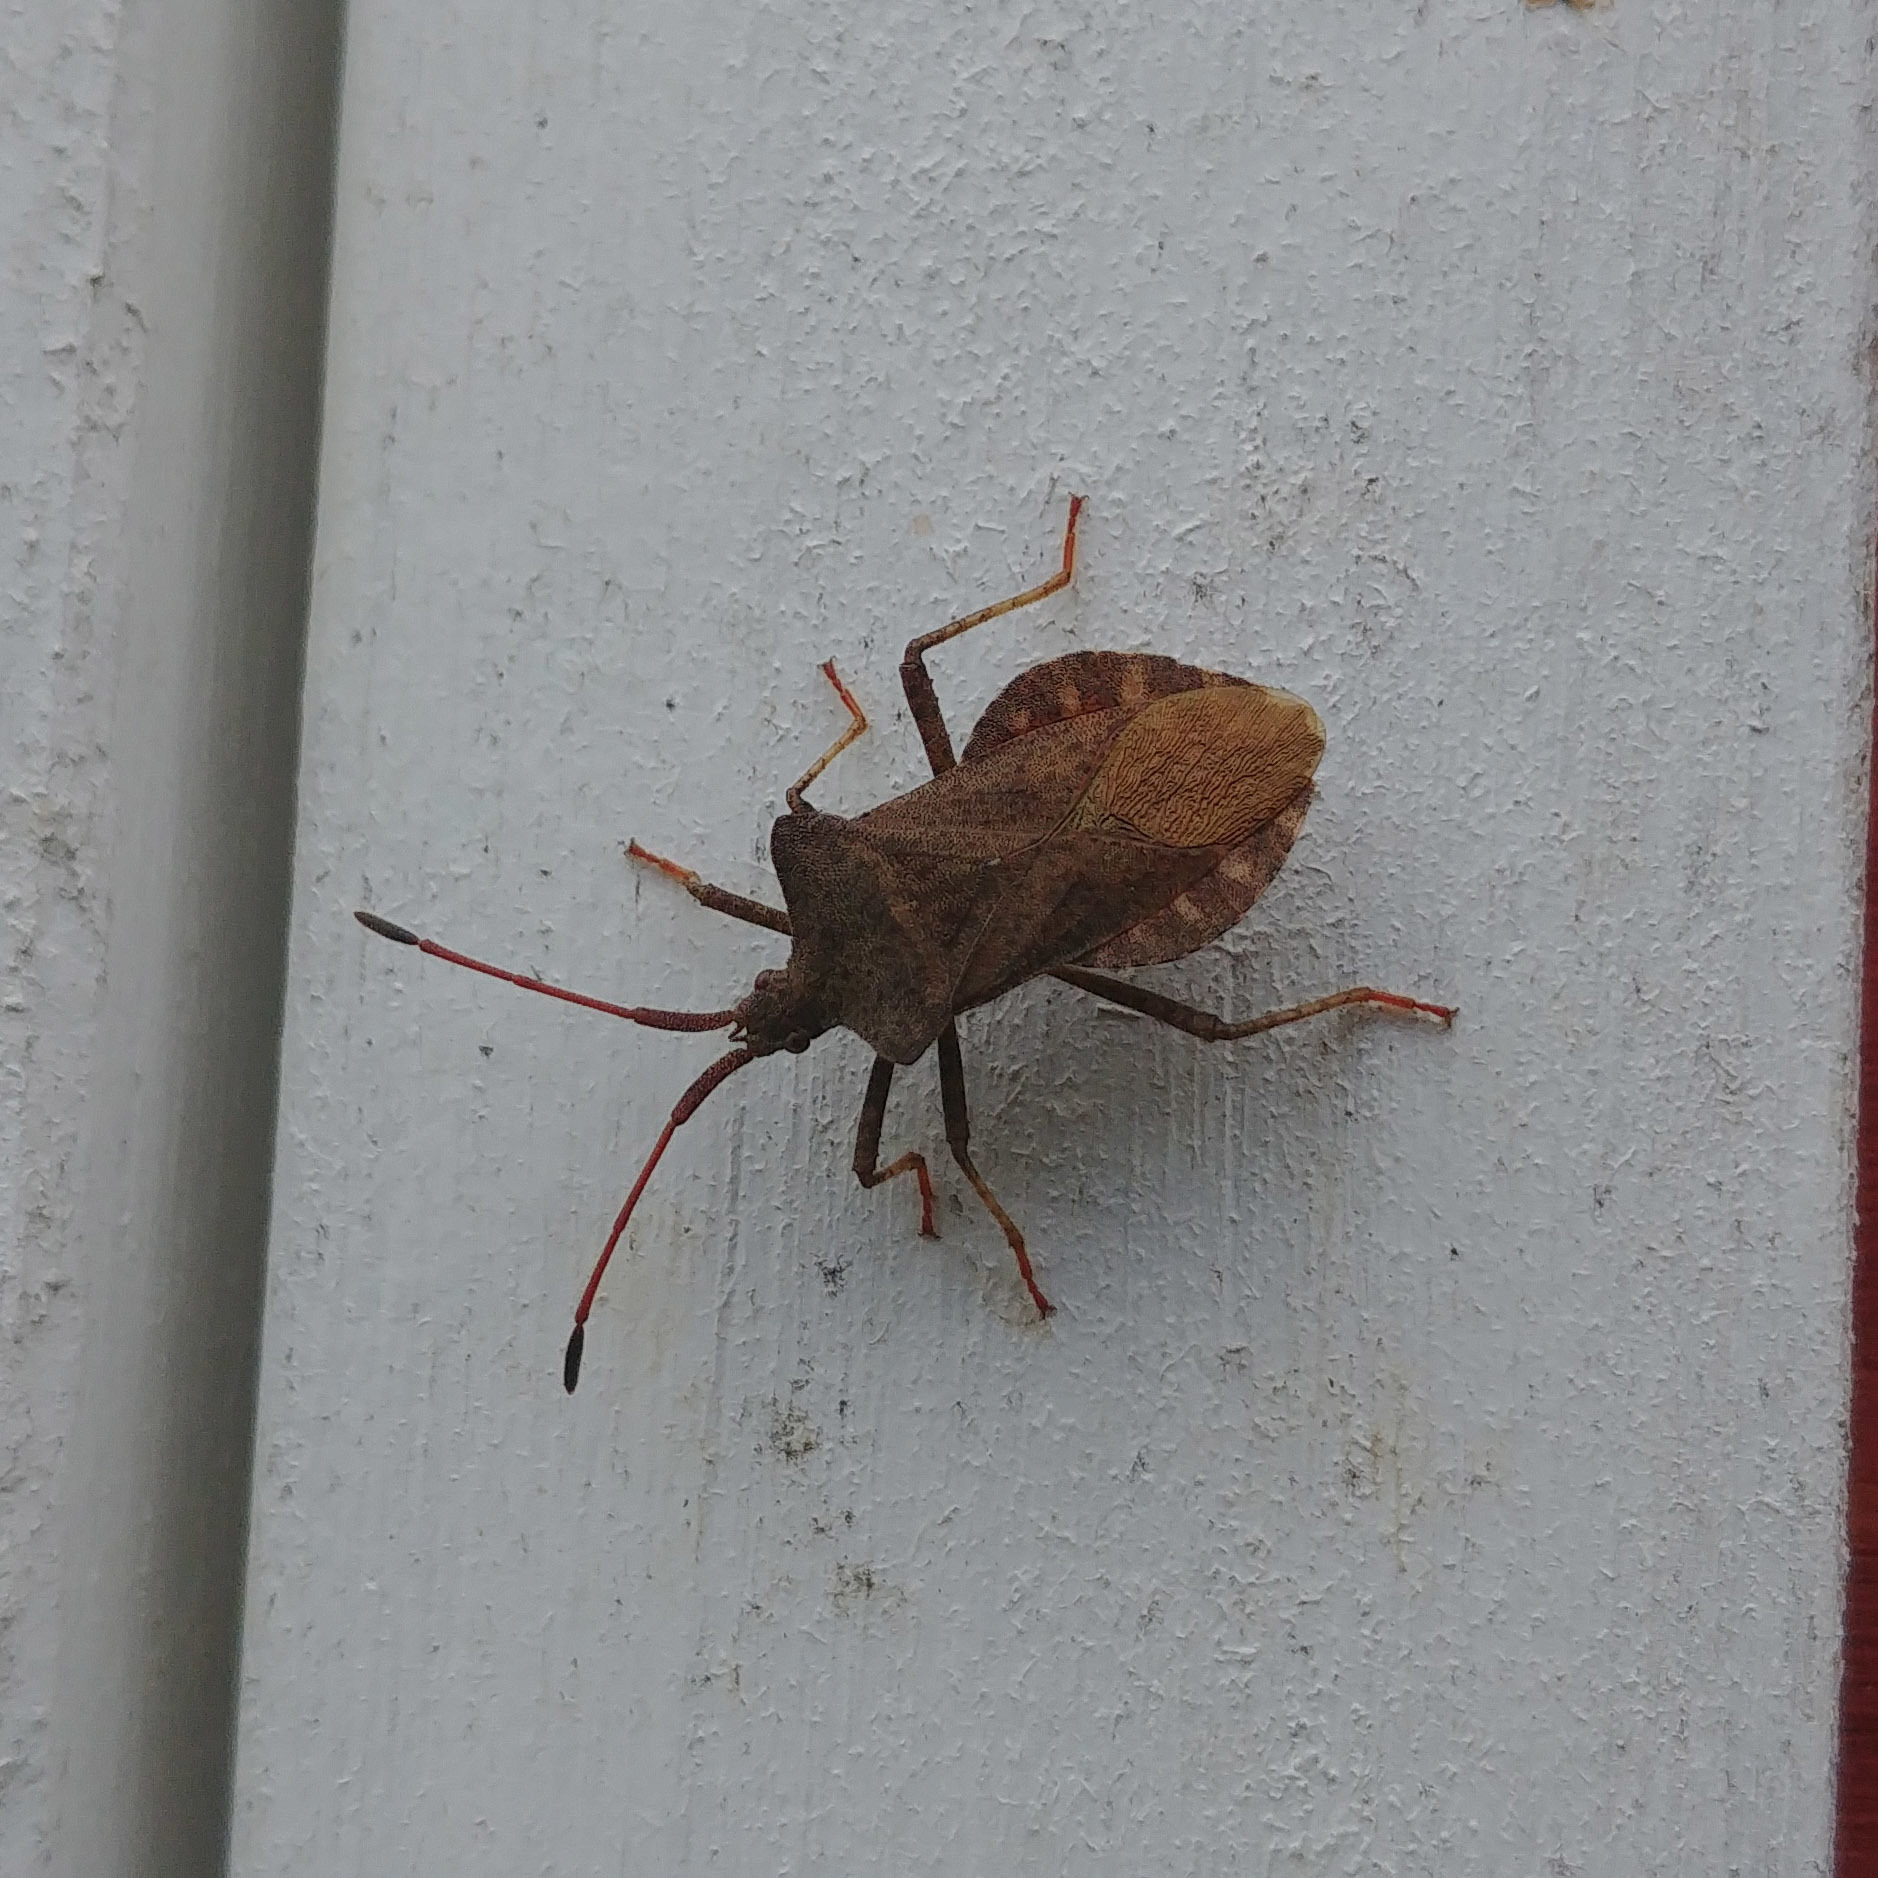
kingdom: Animalia
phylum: Arthropoda
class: Insecta
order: Hemiptera
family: Coreidae
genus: Coreus
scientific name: Coreus marginatus
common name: Dock bug
